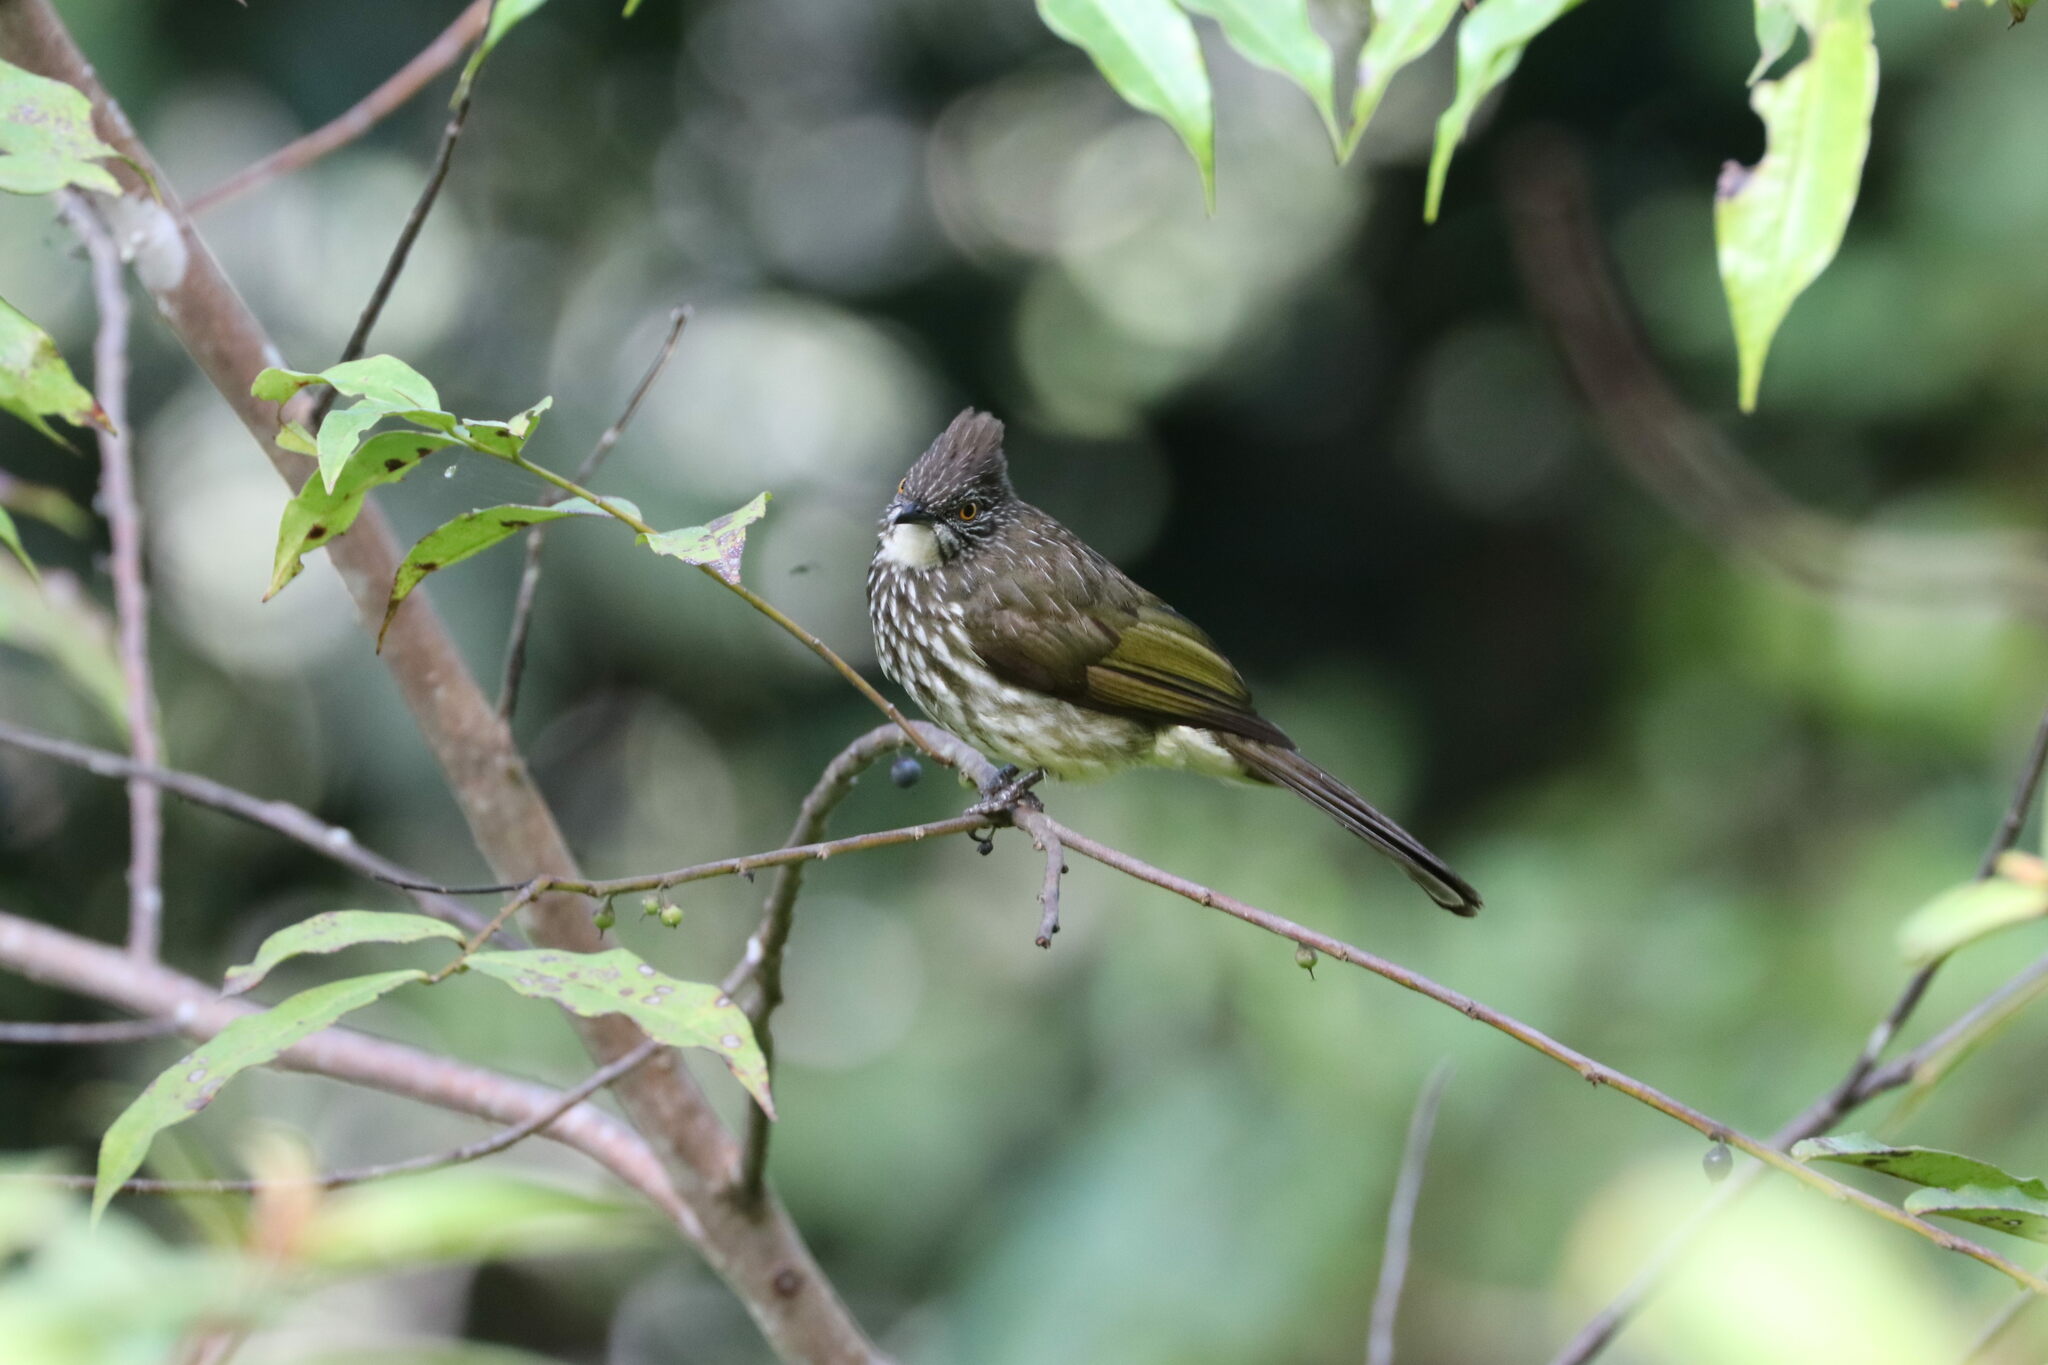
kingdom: Animalia
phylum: Chordata
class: Aves
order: Passeriformes
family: Pycnonotidae
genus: Ixos
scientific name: Ixos
